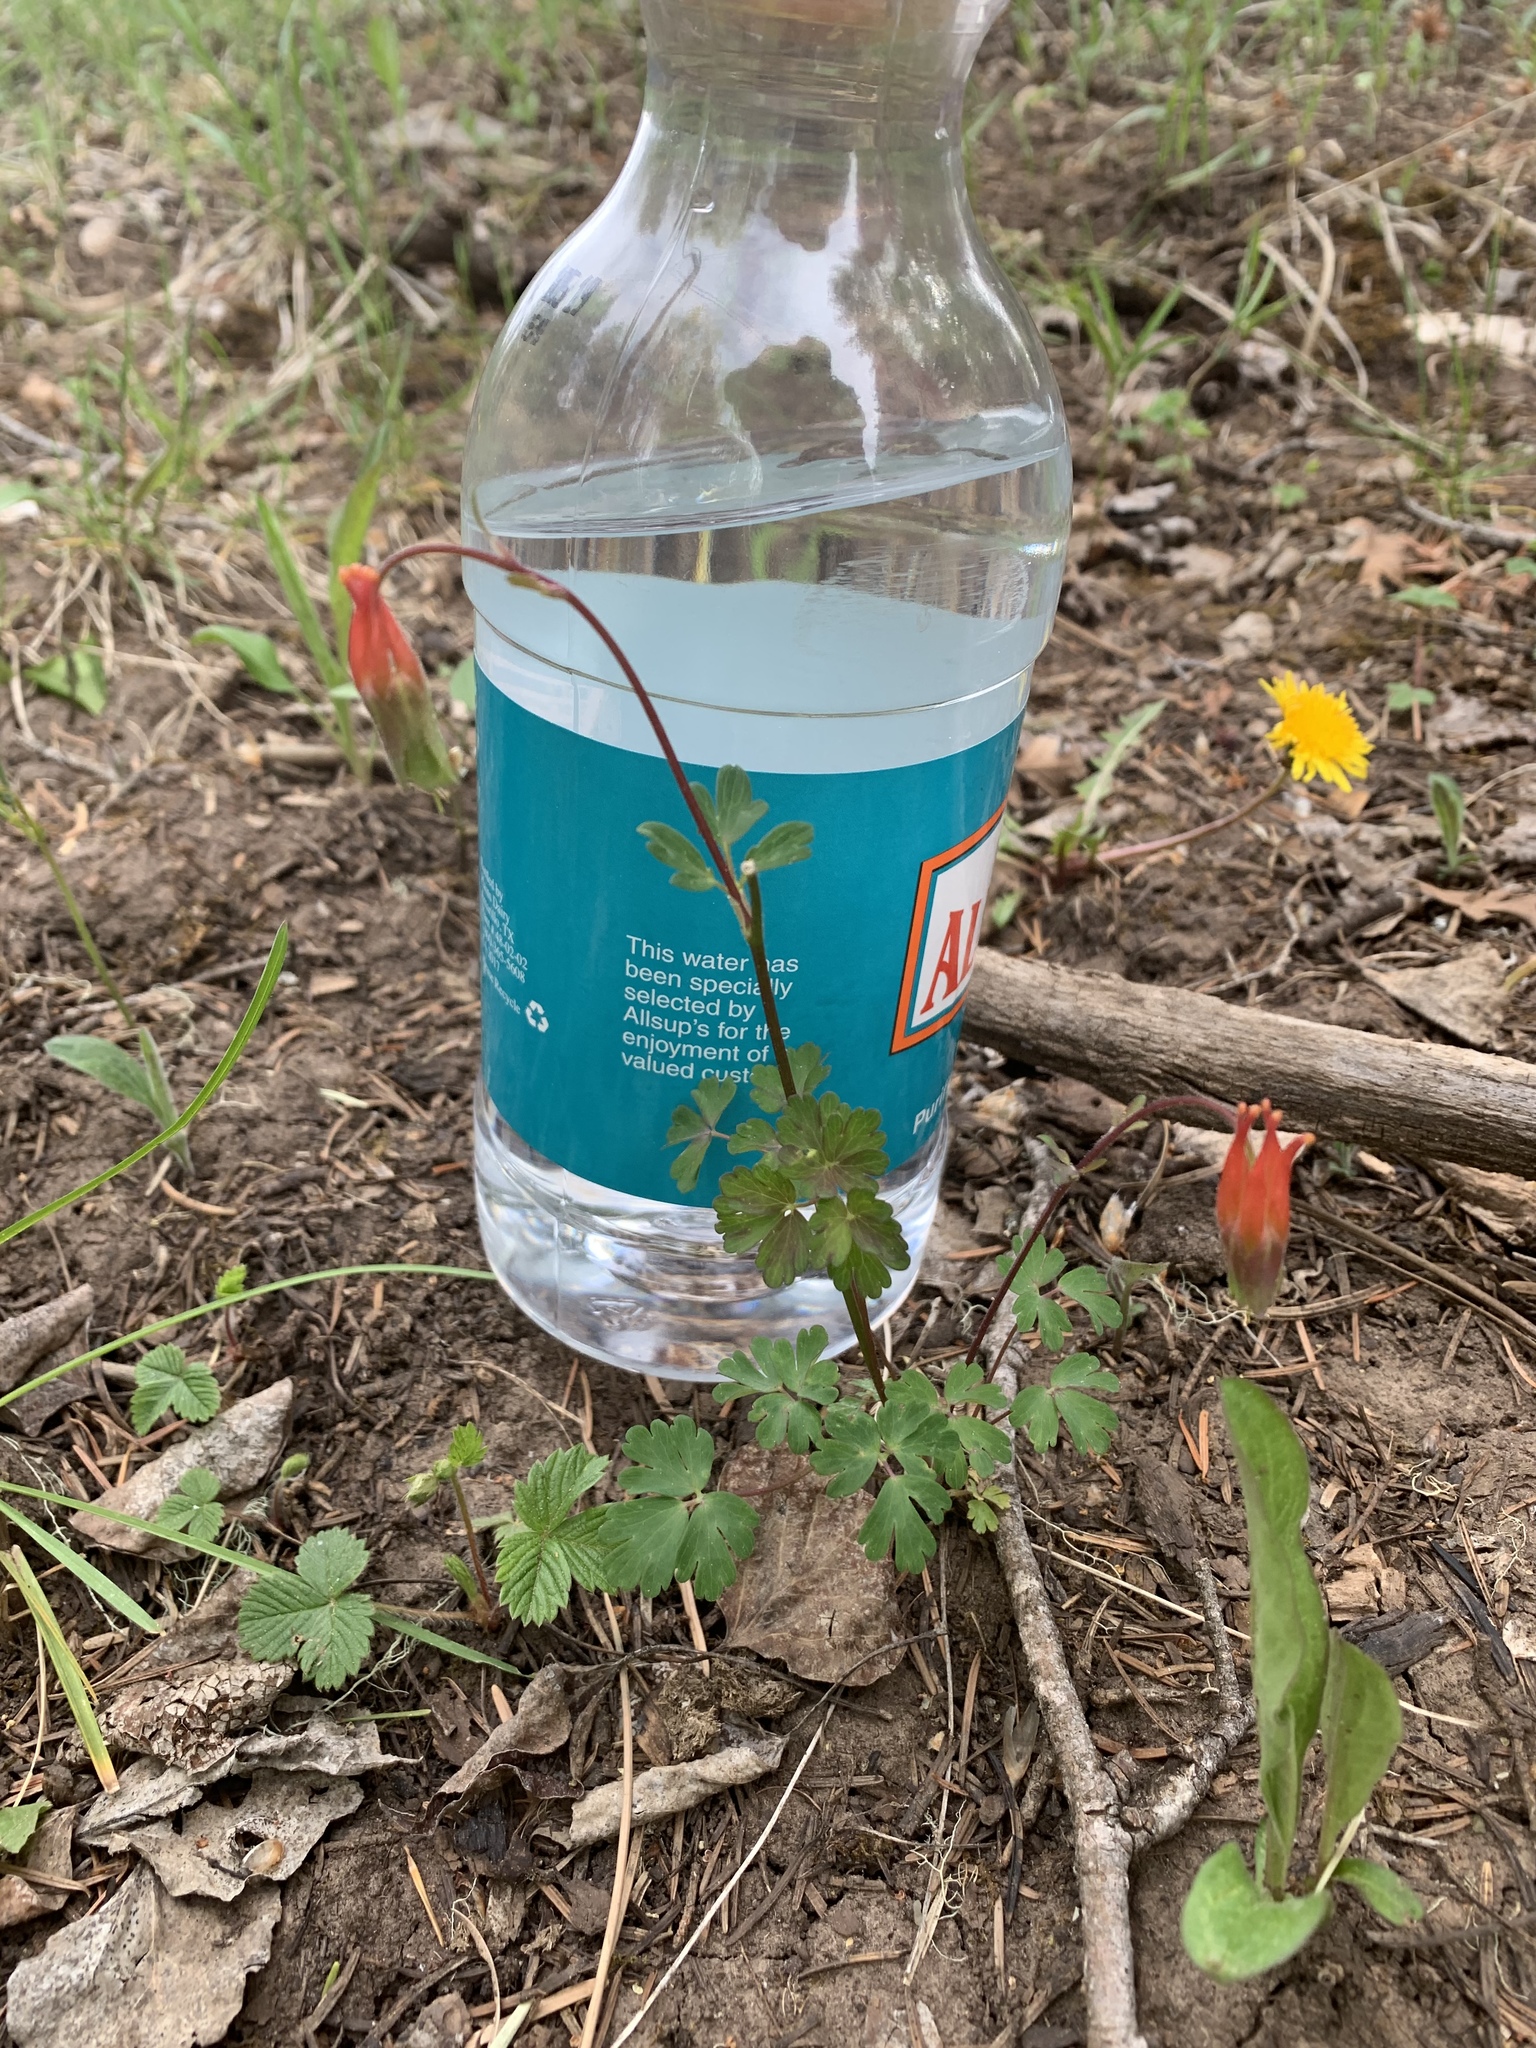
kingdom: Plantae
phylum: Tracheophyta
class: Magnoliopsida
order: Ranunculales
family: Ranunculaceae
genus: Aquilegia
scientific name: Aquilegia elegantula
